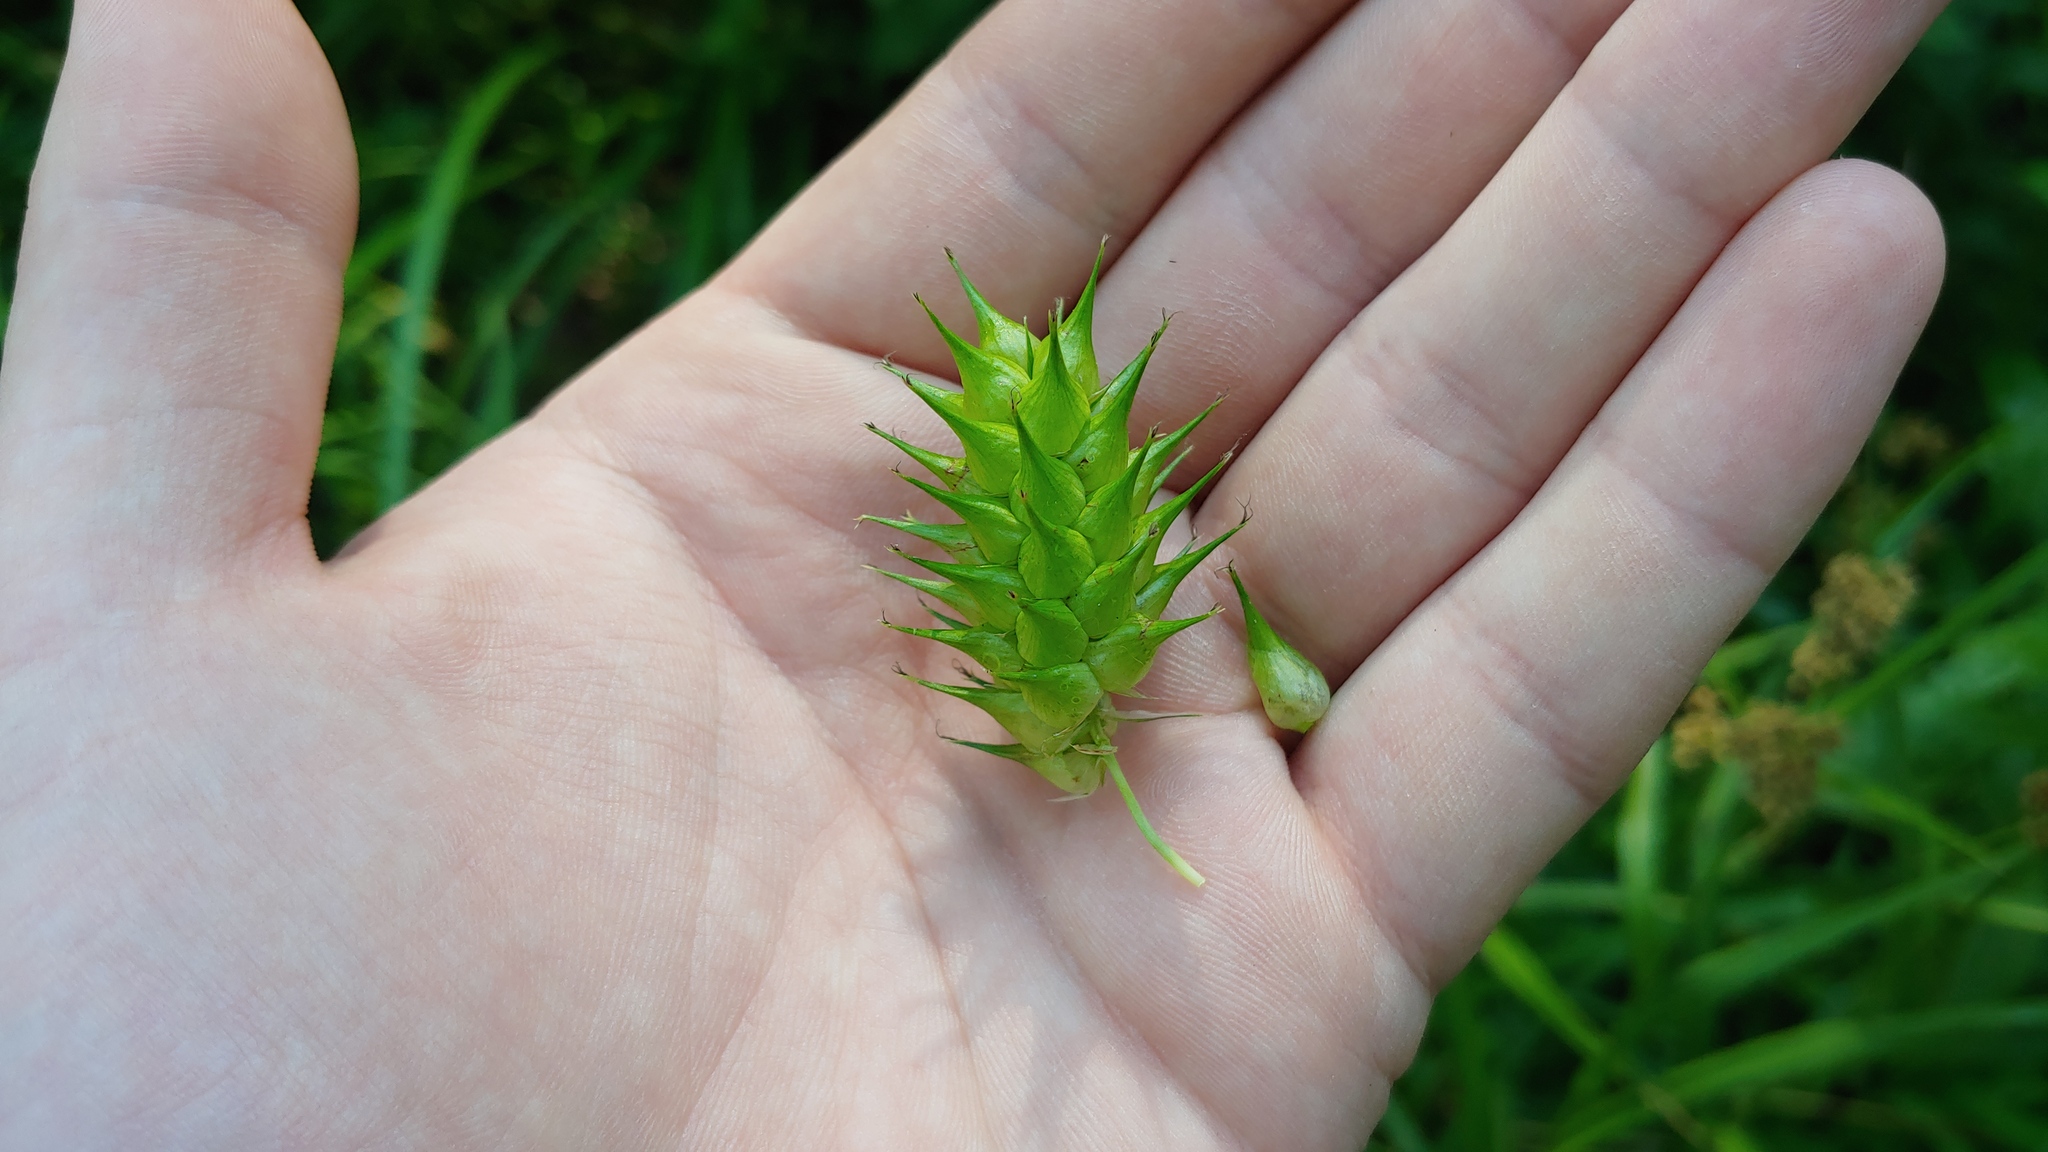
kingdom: Plantae
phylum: Tracheophyta
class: Liliopsida
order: Poales
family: Cyperaceae
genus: Carex
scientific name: Carex lupulina
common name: Hop sedge
